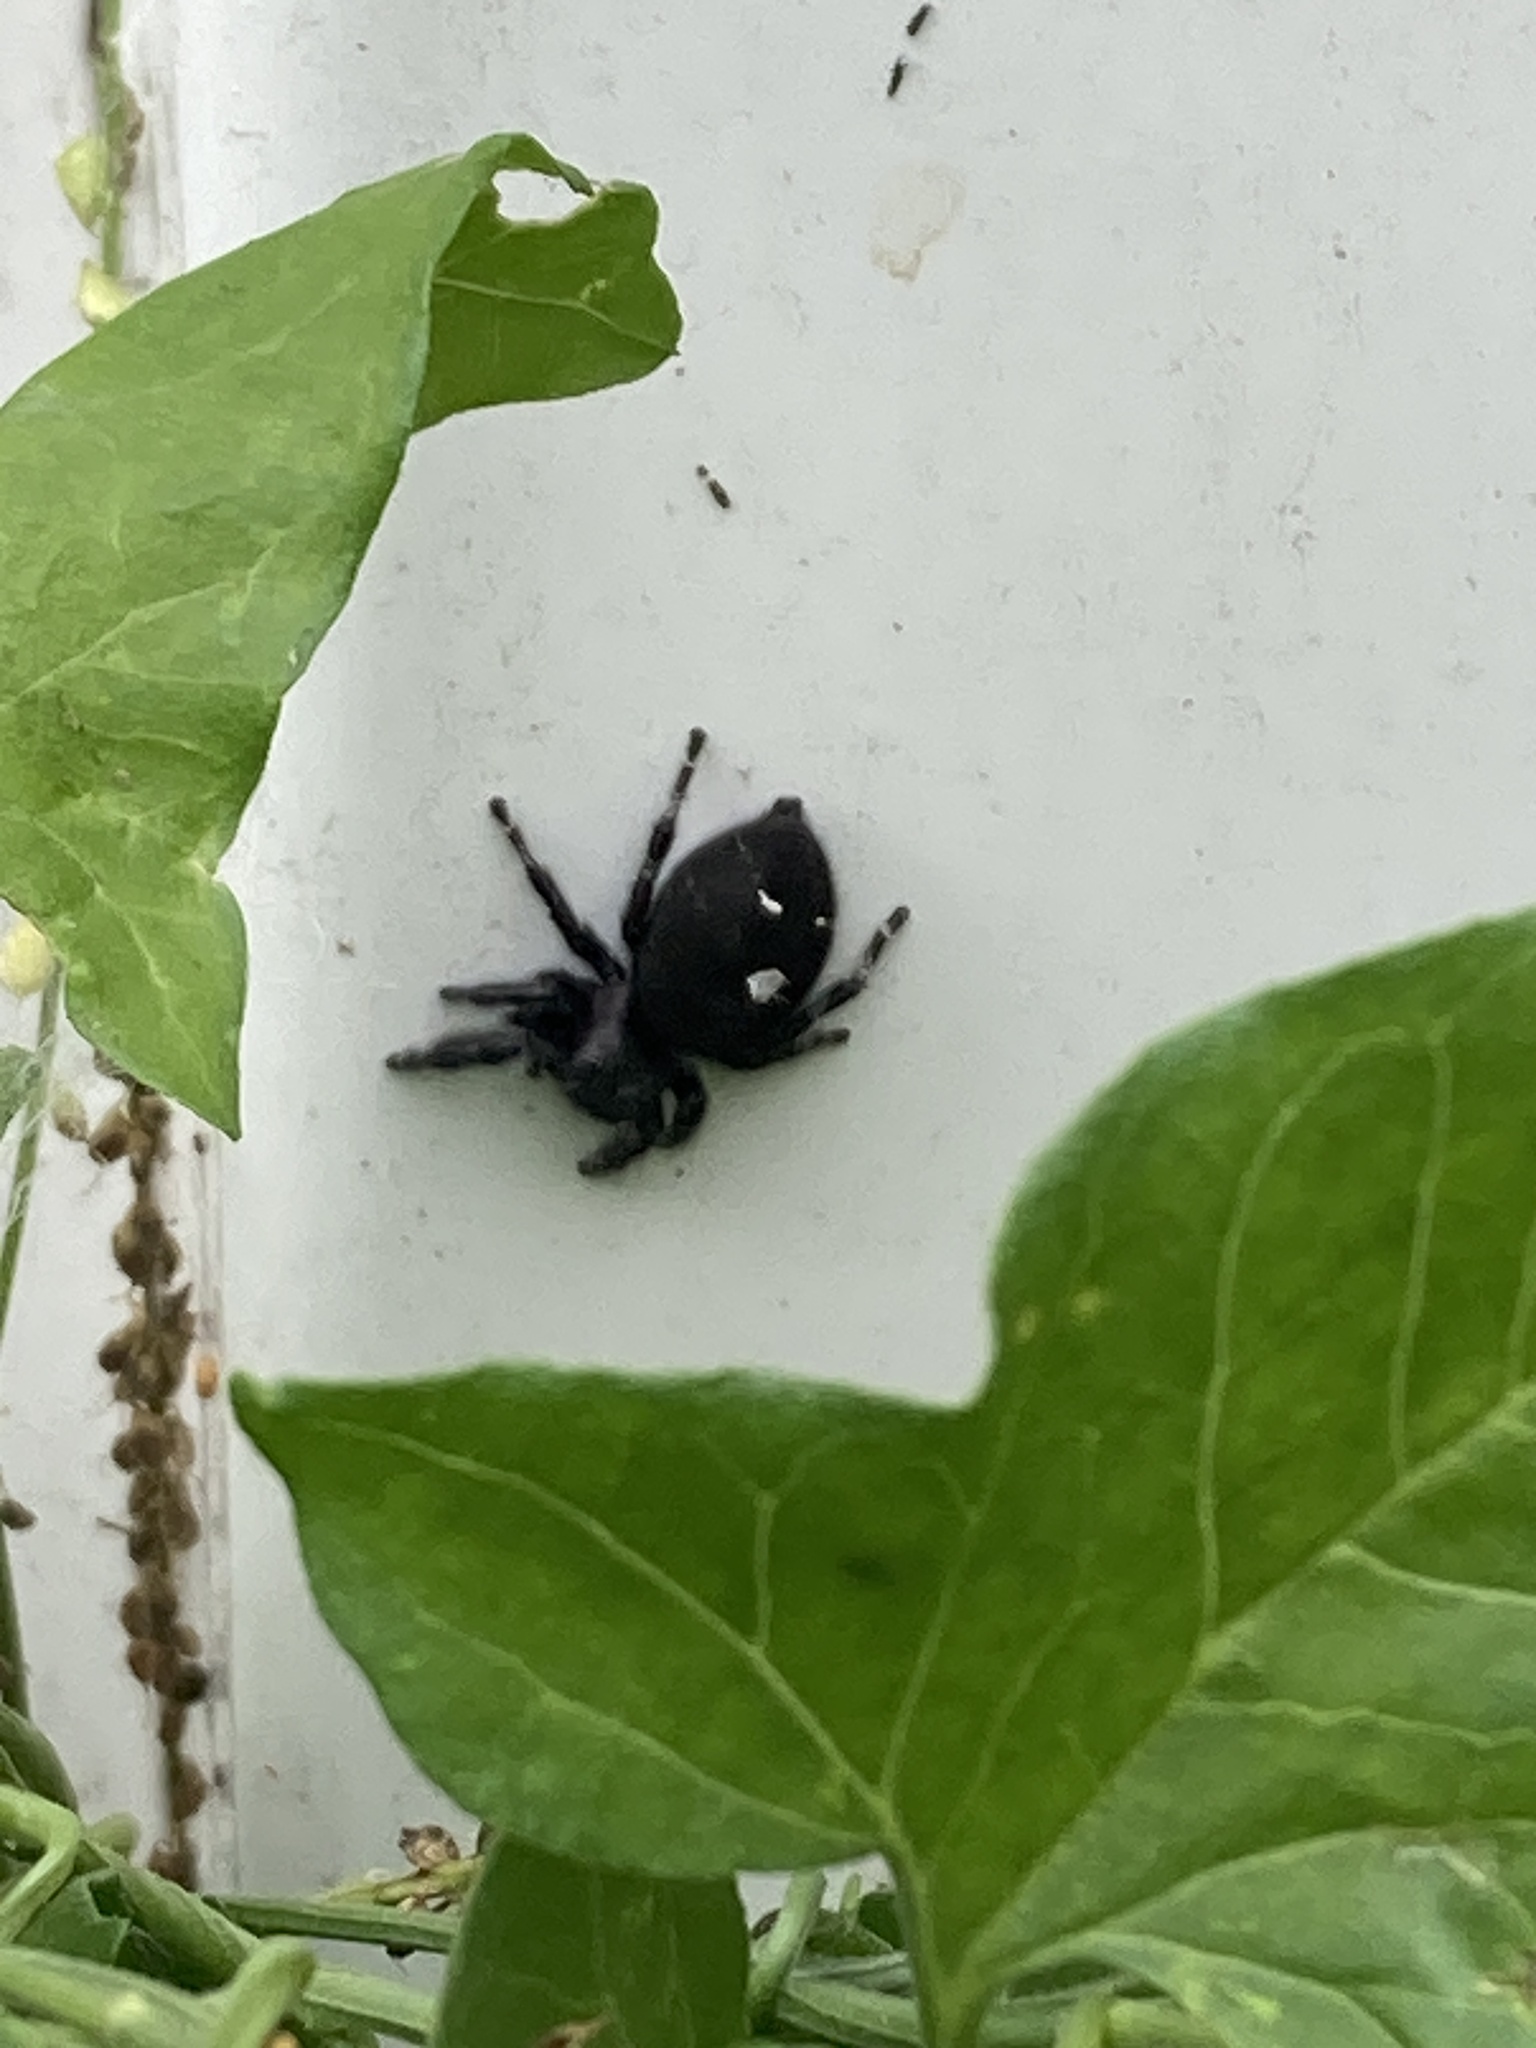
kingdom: Animalia
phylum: Arthropoda
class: Arachnida
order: Araneae
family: Salticidae
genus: Phidippus
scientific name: Phidippus audax
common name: Bold jumper
